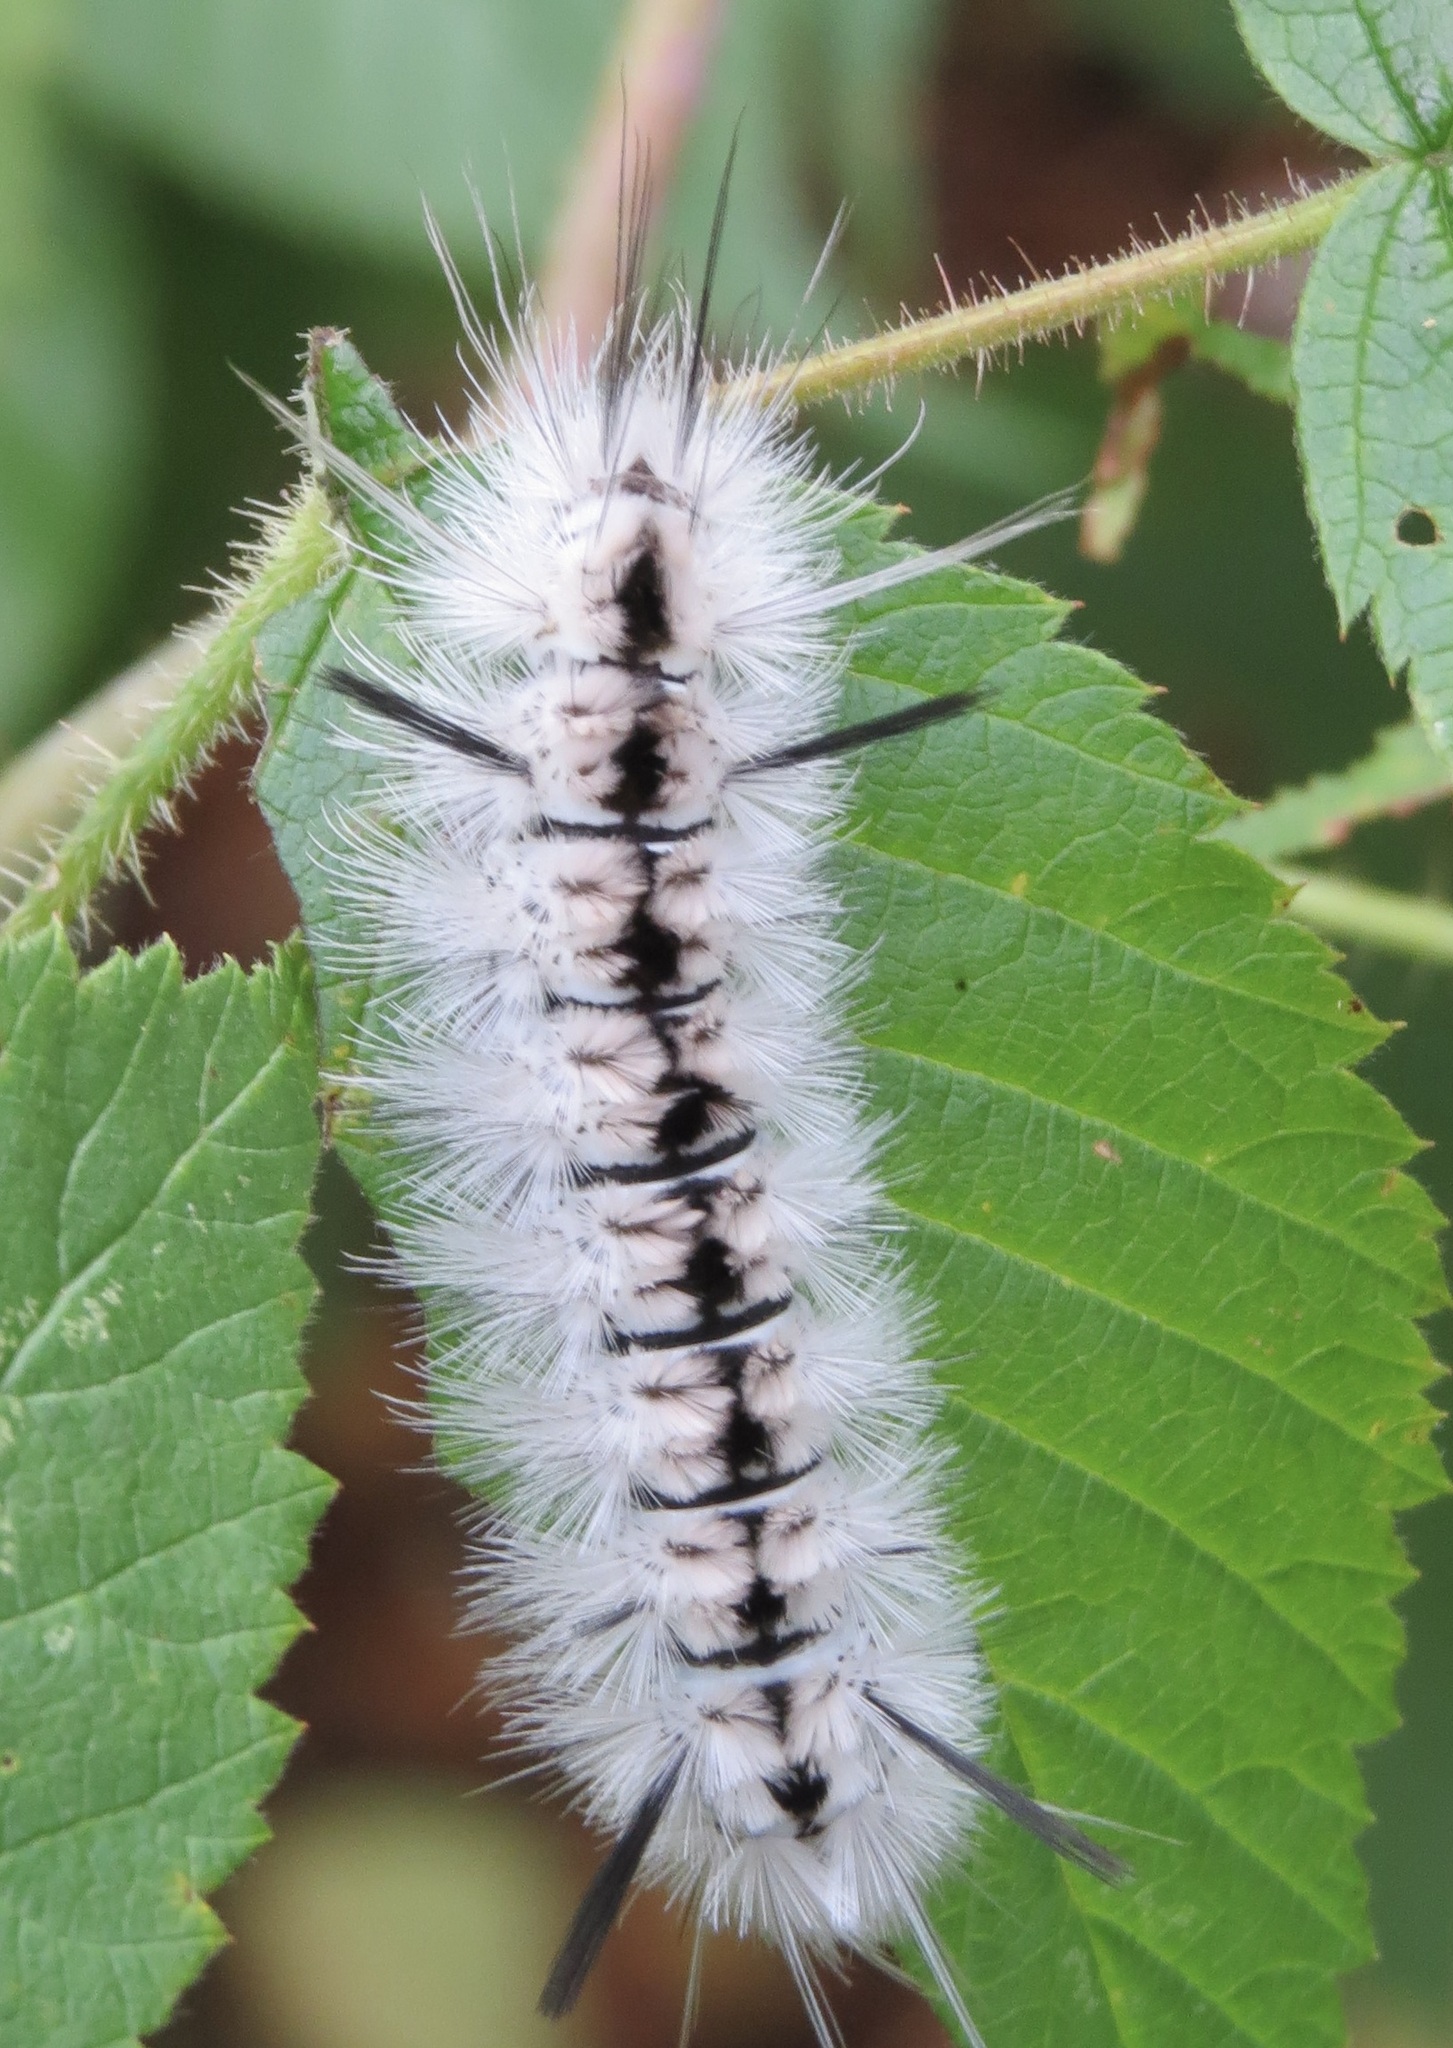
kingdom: Animalia
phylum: Arthropoda
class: Insecta
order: Lepidoptera
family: Erebidae
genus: Lophocampa
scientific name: Lophocampa caryae
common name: Hickory tussock moth
